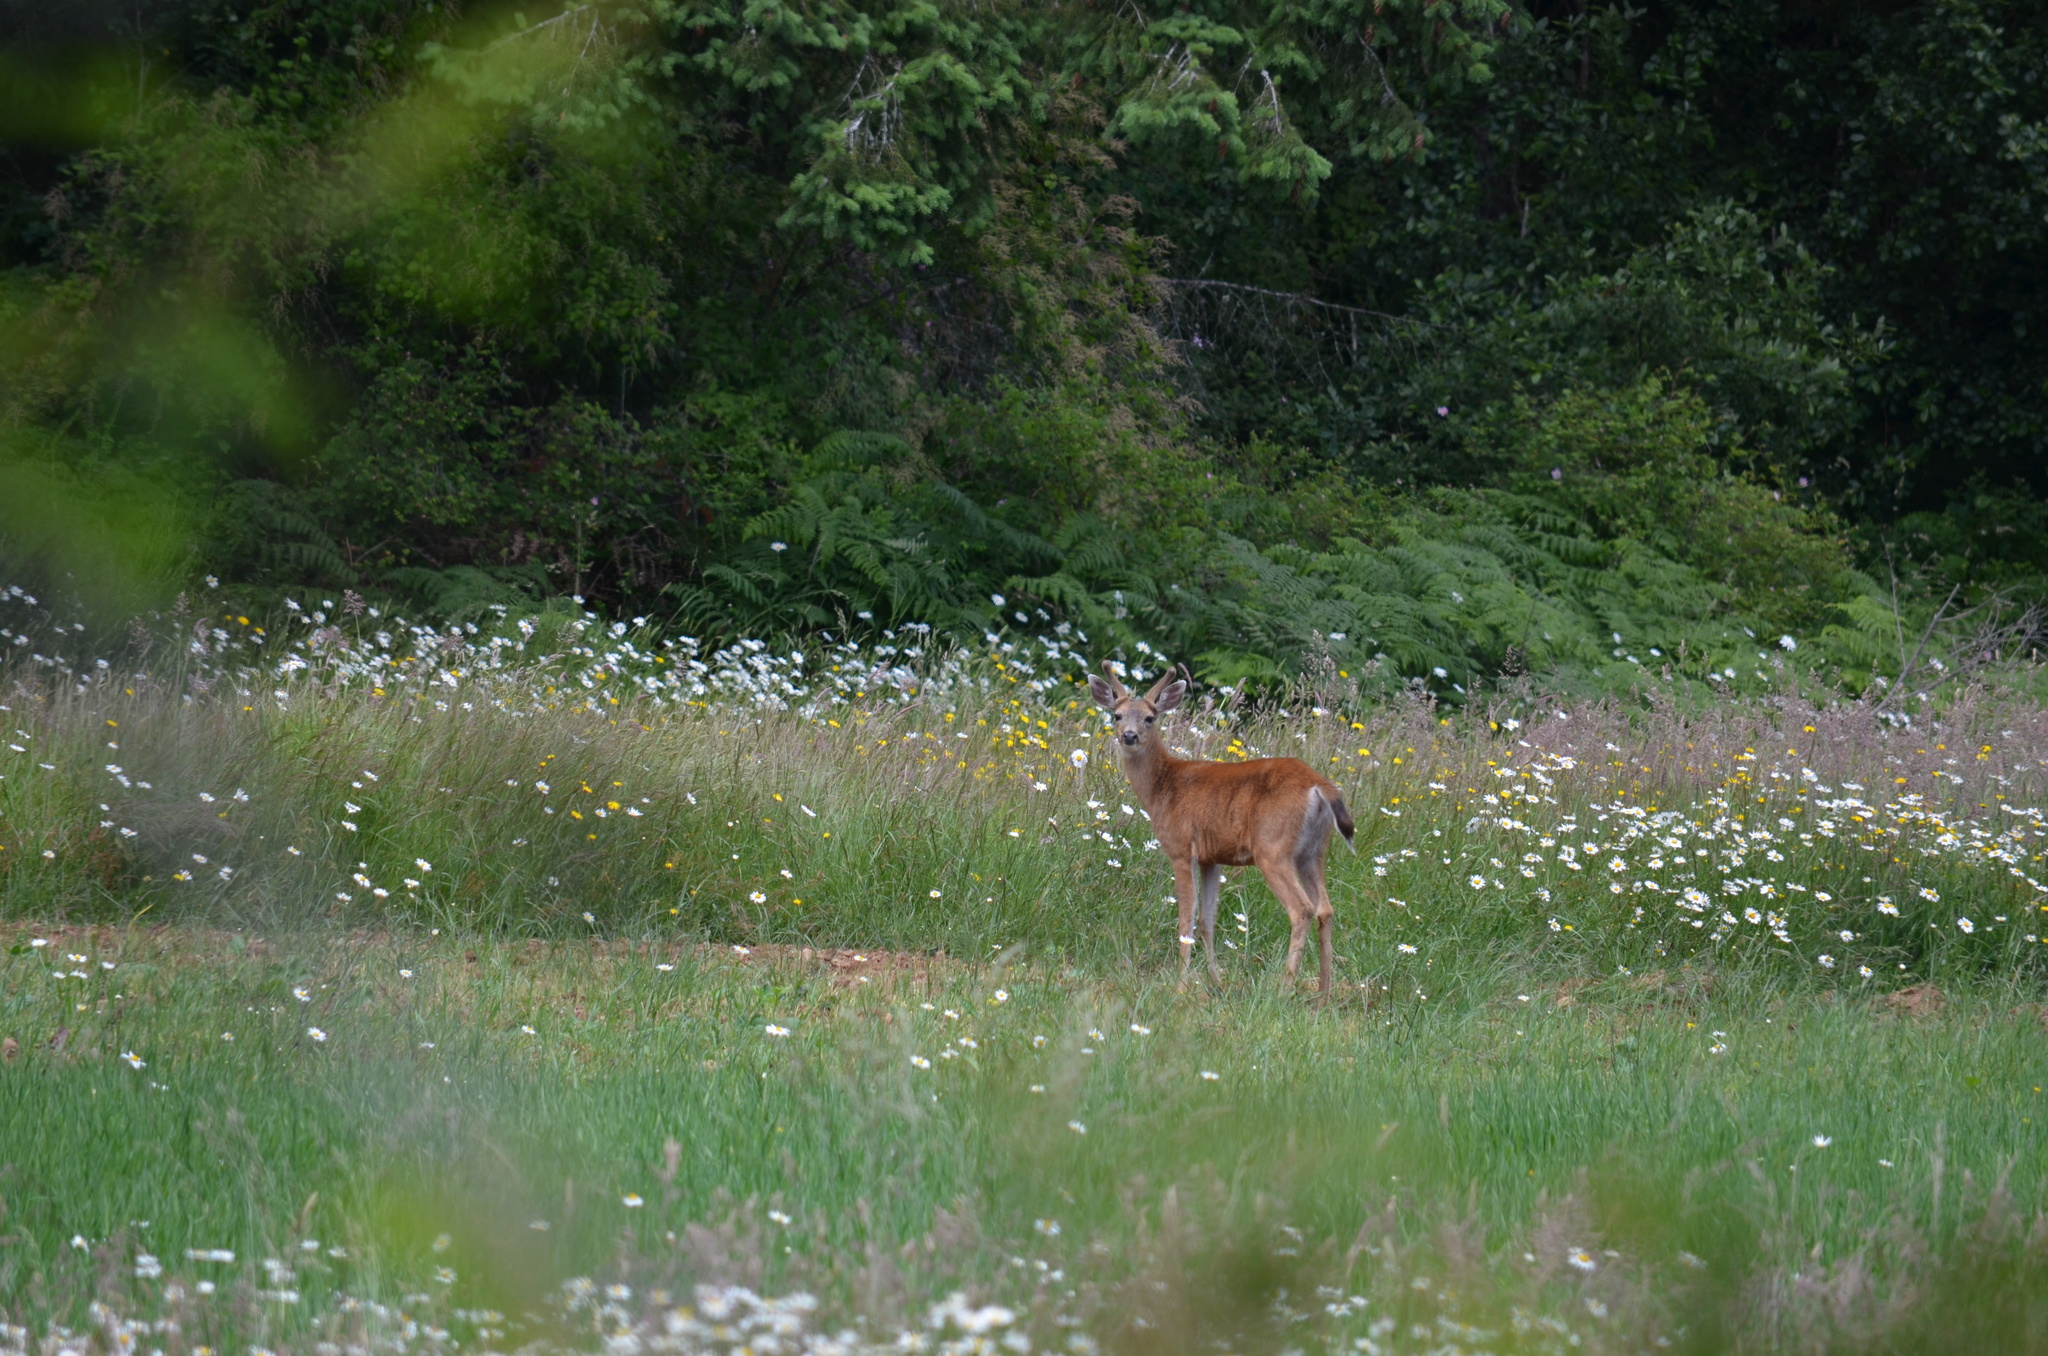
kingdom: Animalia
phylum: Chordata
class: Mammalia
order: Artiodactyla
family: Cervidae
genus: Odocoileus
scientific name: Odocoileus hemionus
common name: Mule deer
